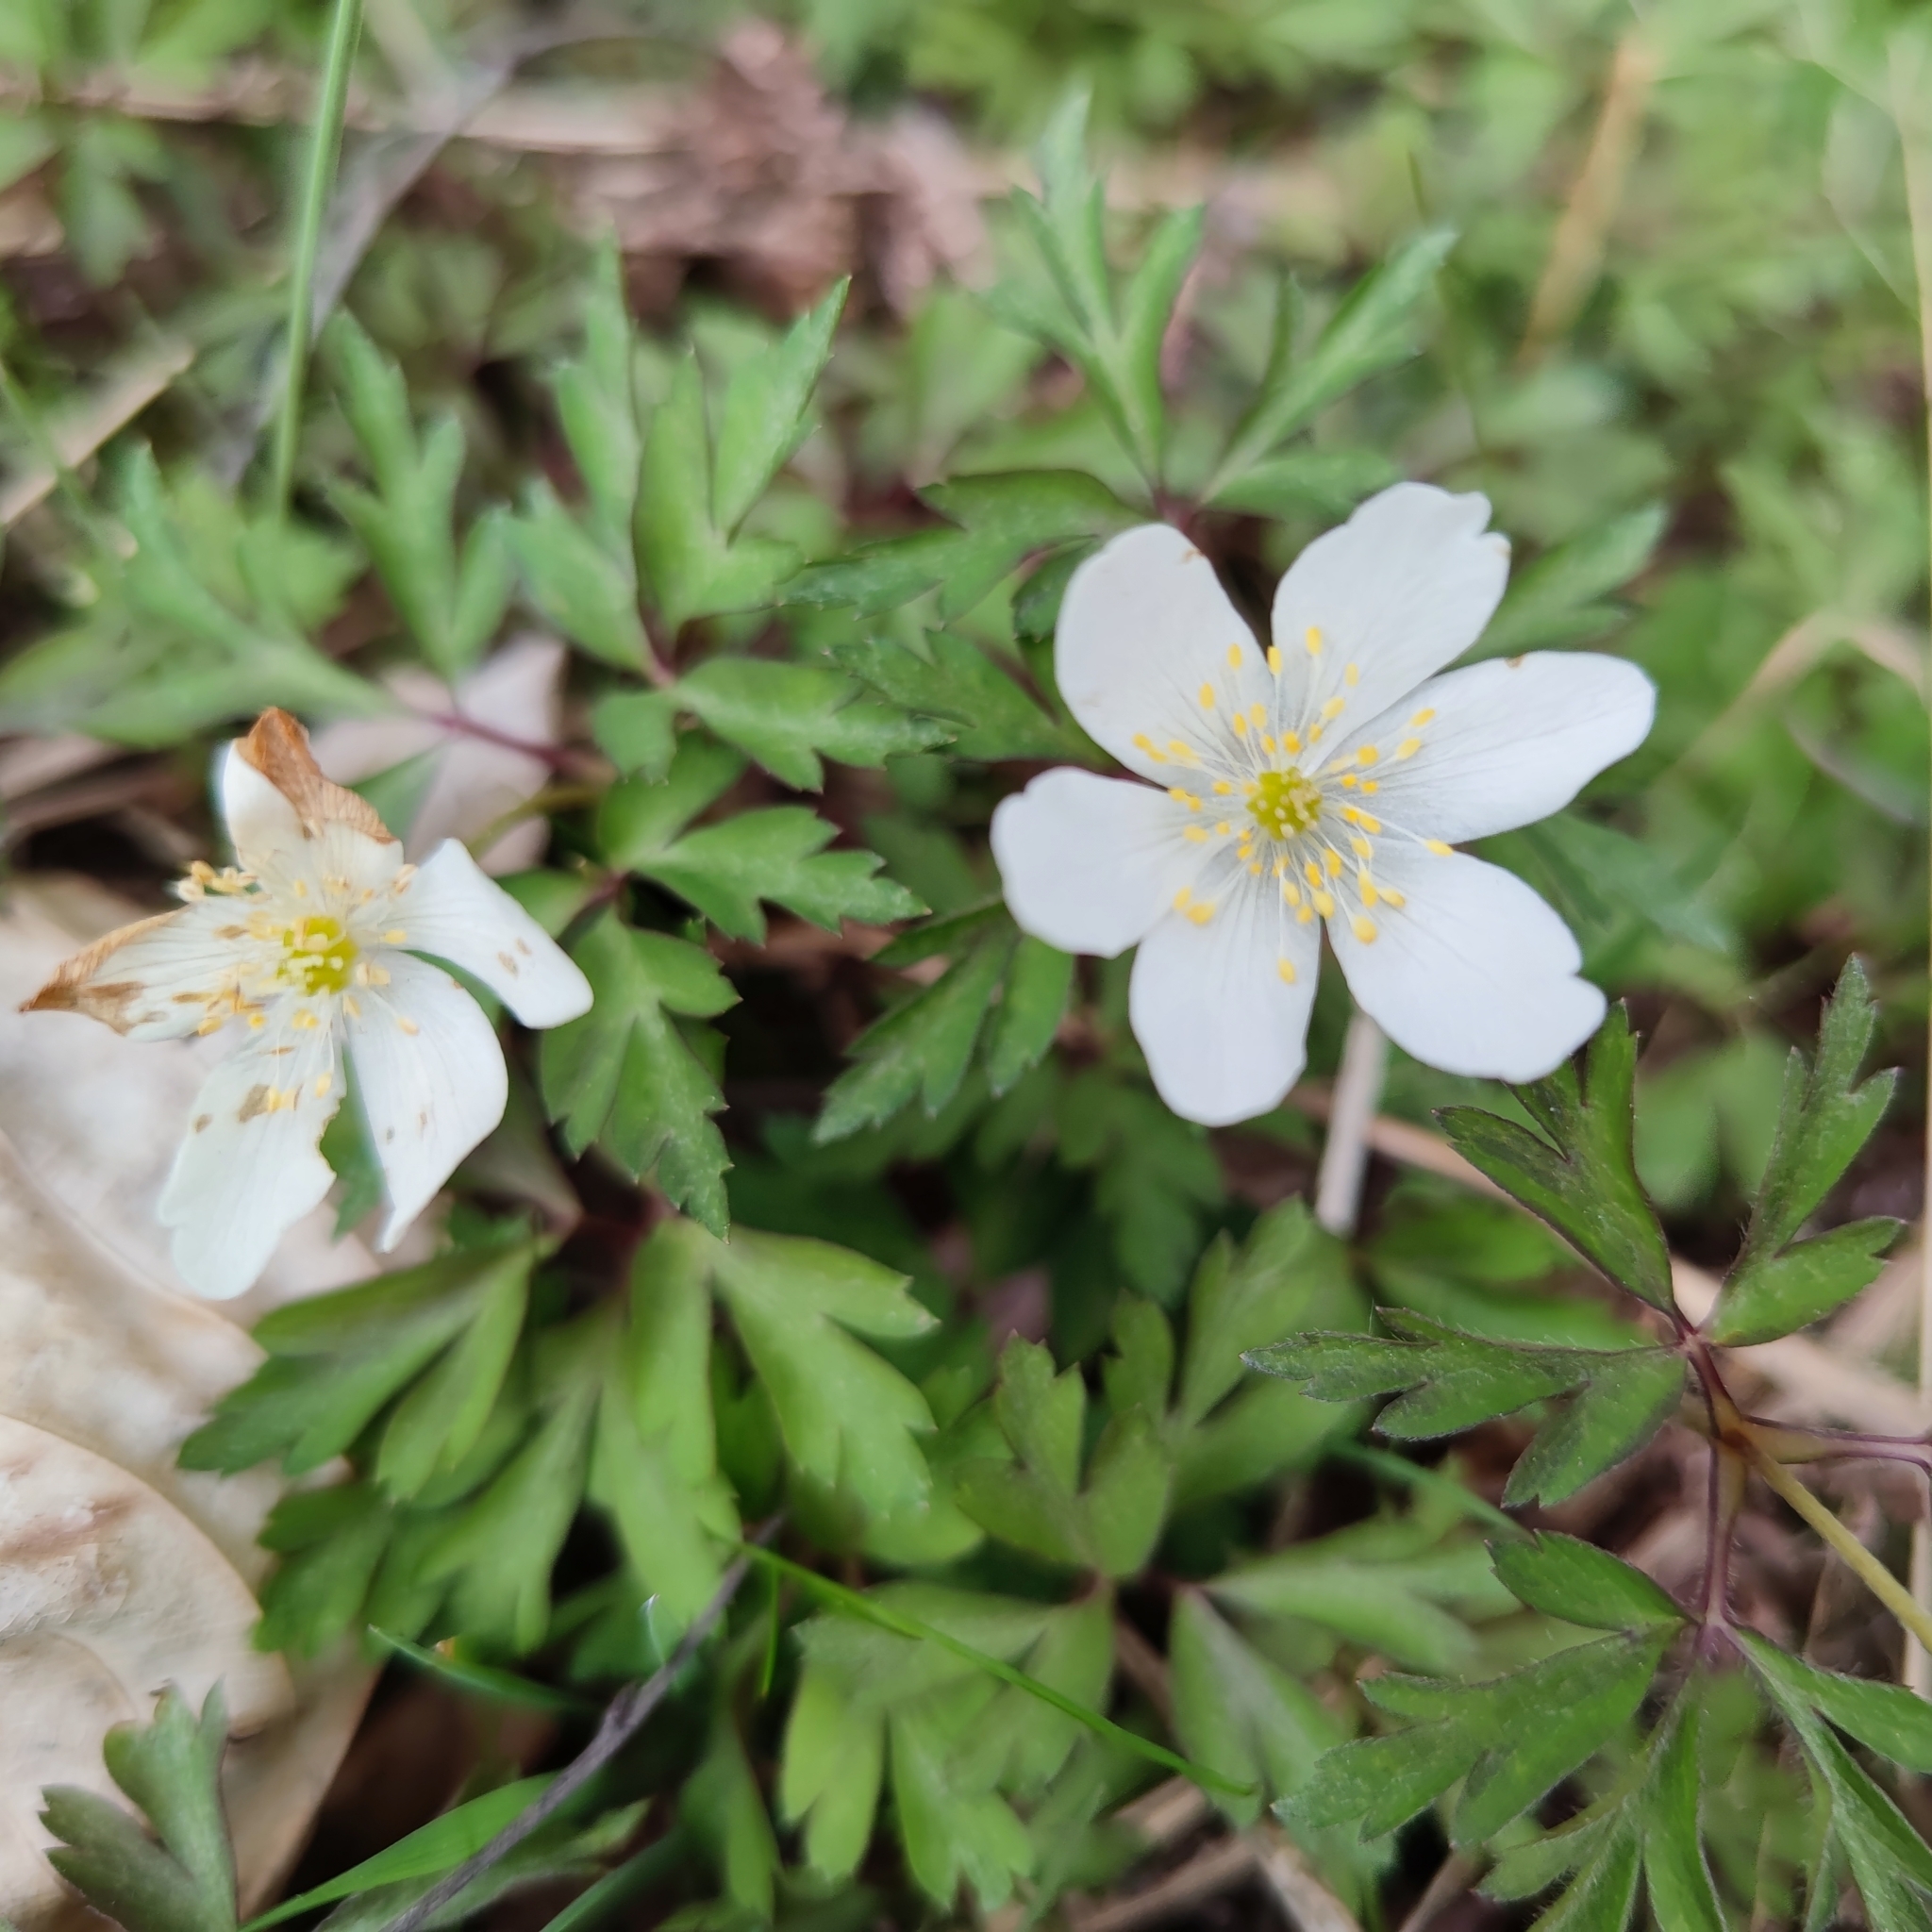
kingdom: Plantae
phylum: Tracheophyta
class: Magnoliopsida
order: Ranunculales
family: Ranunculaceae
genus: Anemone
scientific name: Anemone nemorosa
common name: Wood anemone
